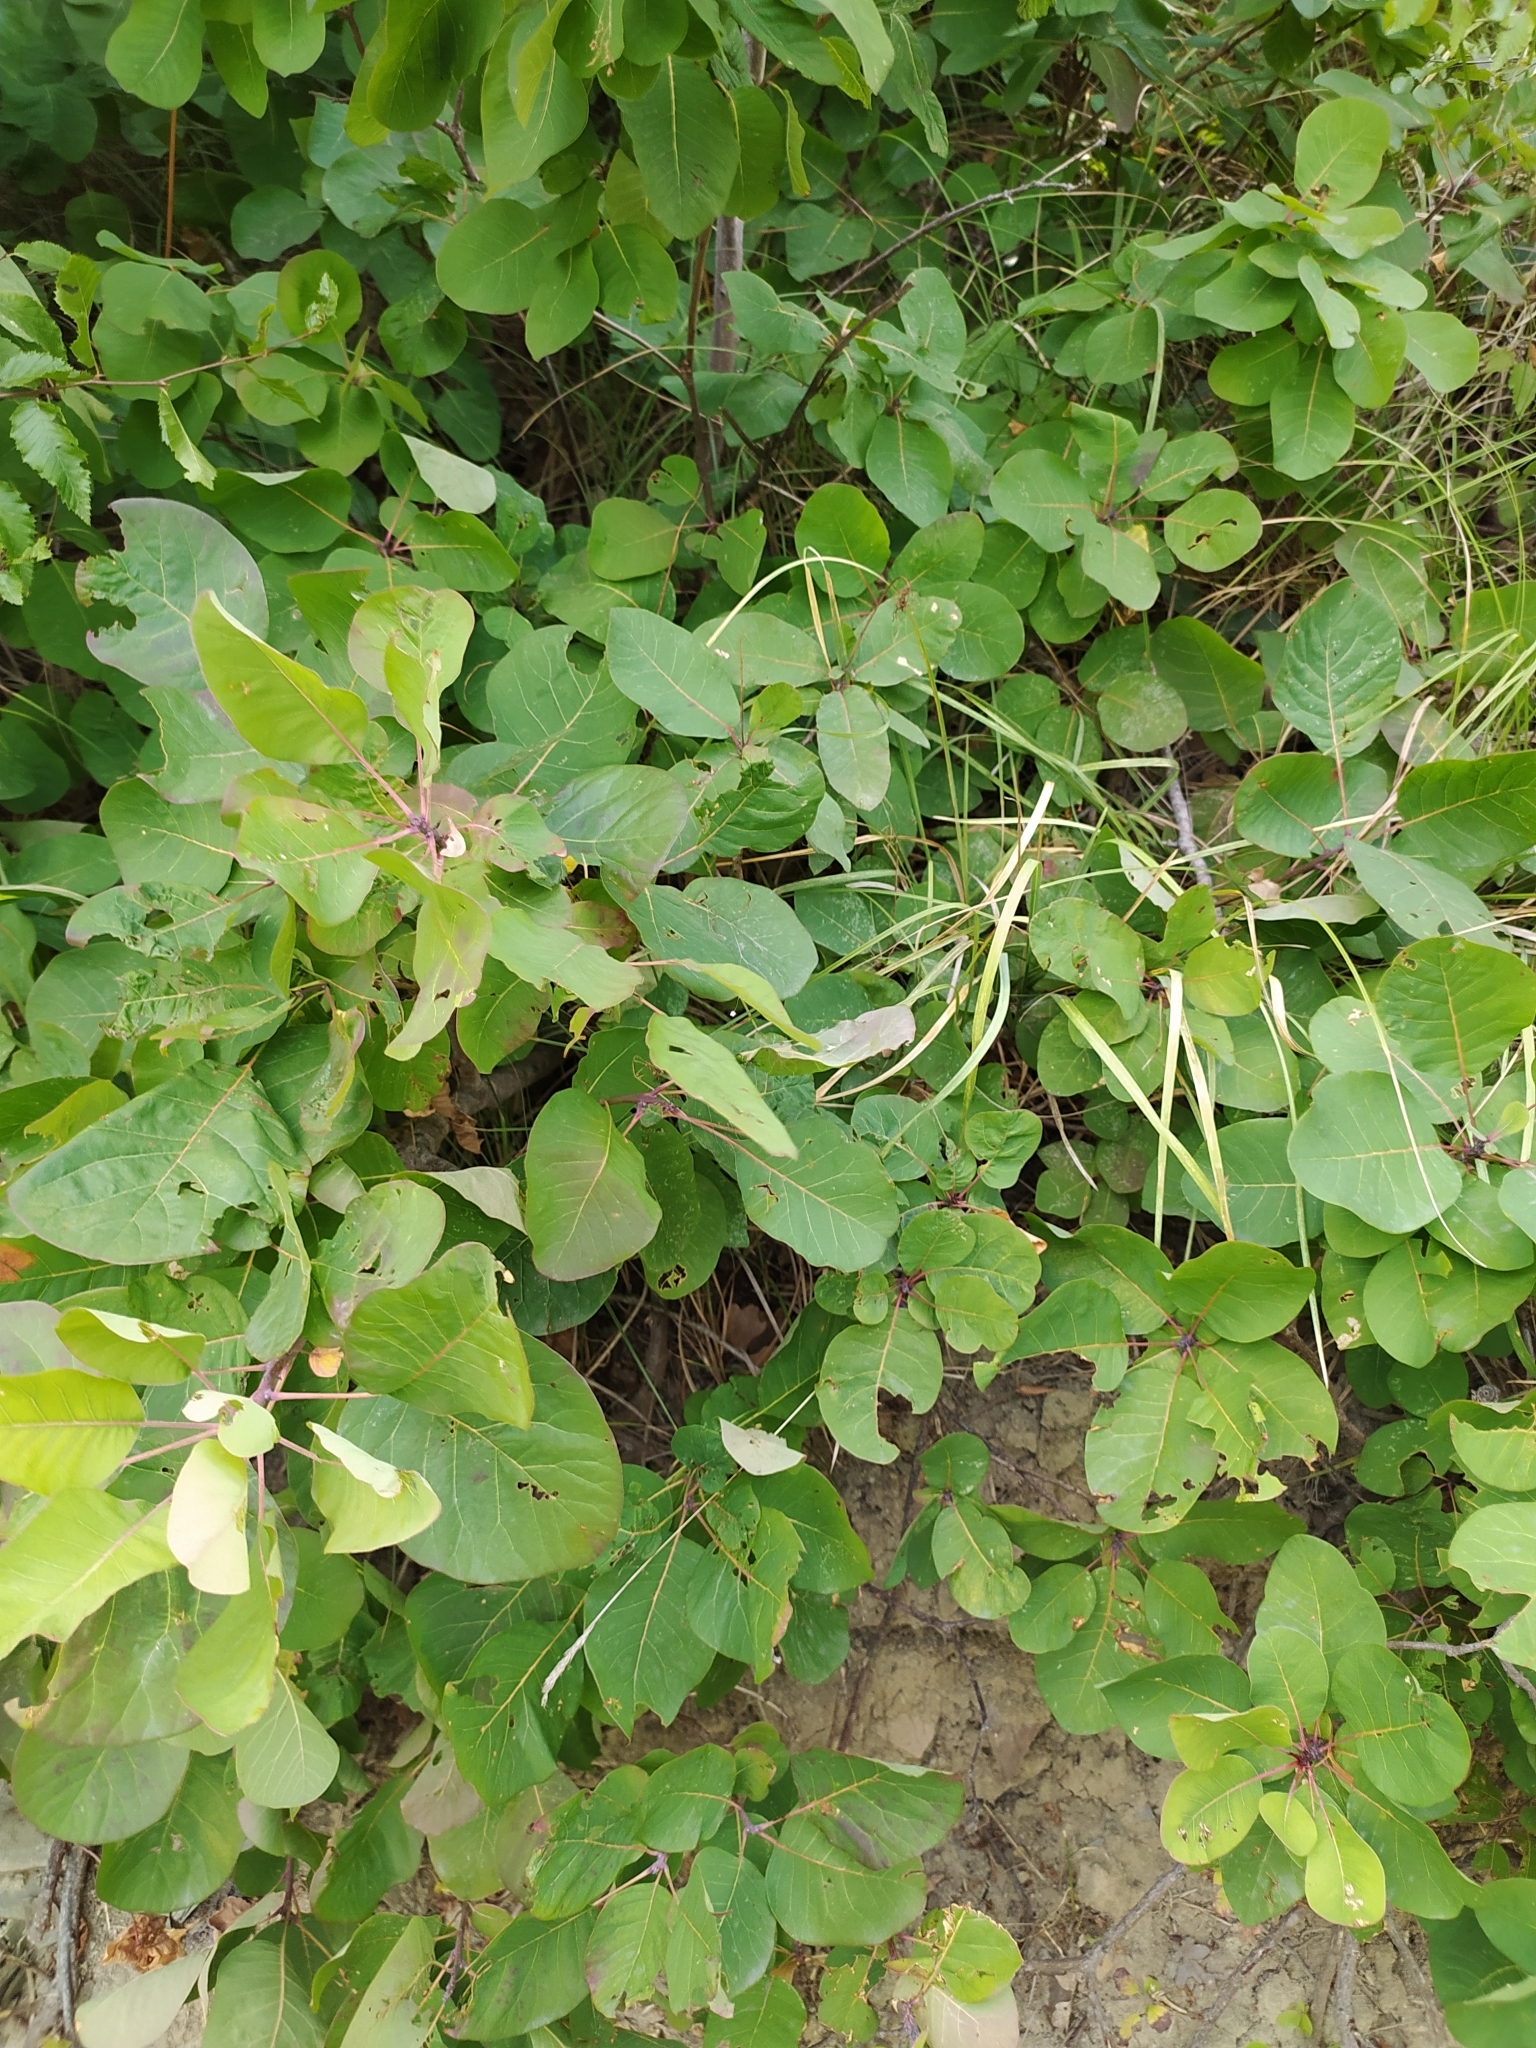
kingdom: Plantae
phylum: Tracheophyta
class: Magnoliopsida
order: Sapindales
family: Anacardiaceae
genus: Cotinus
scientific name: Cotinus coggygria
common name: Smoke-tree
